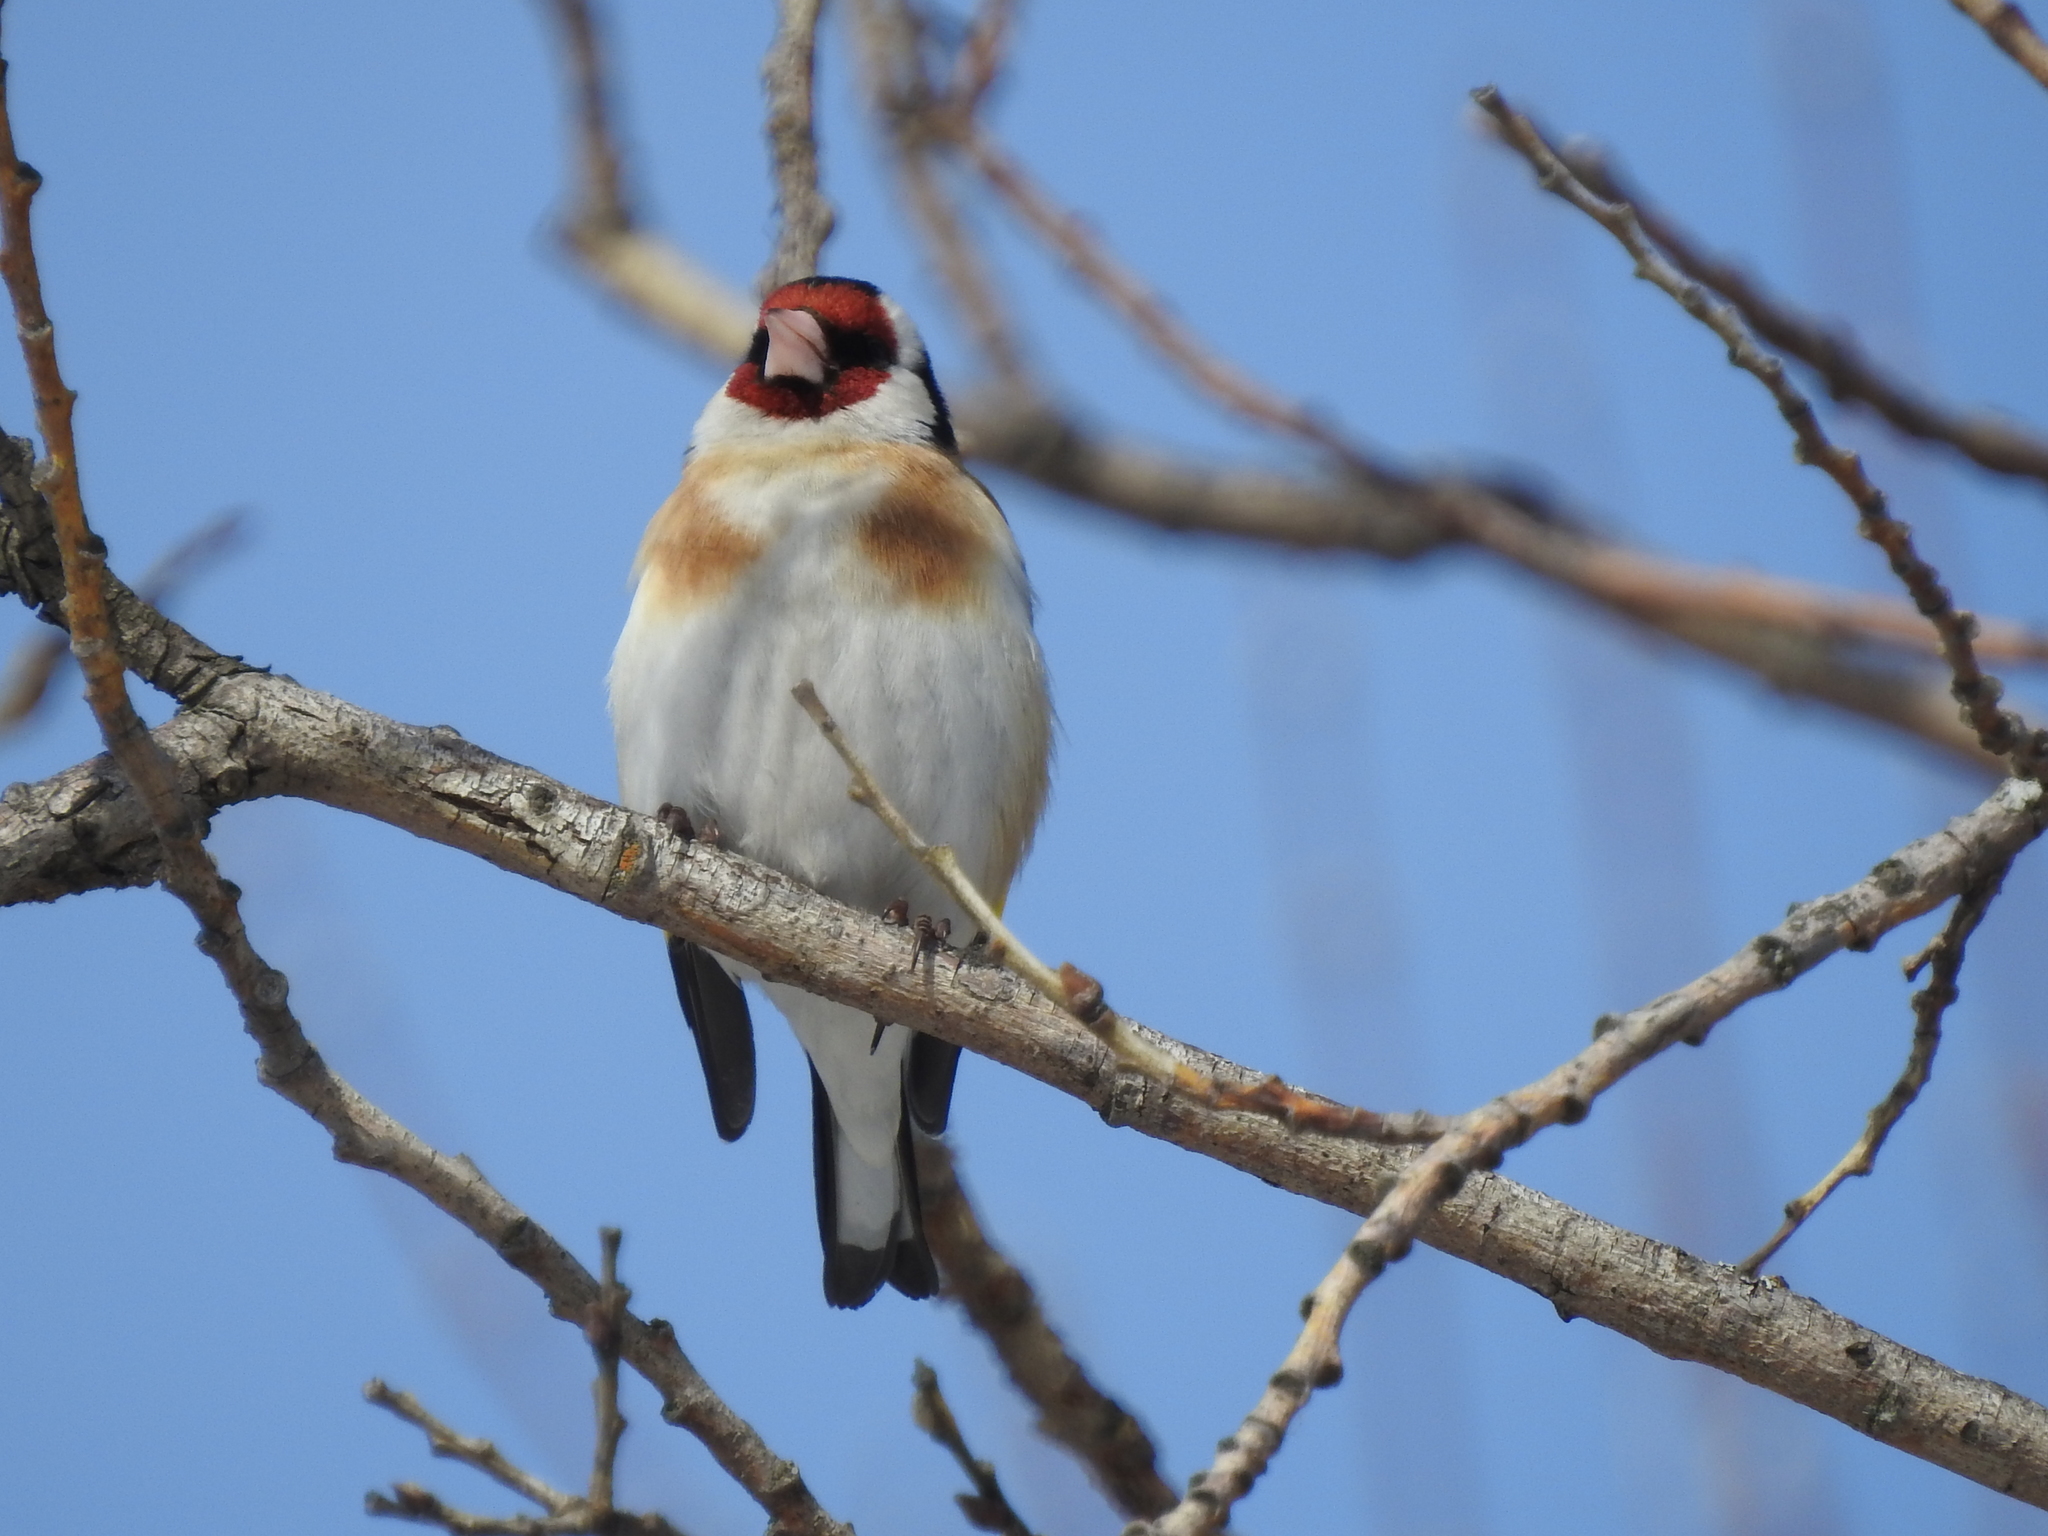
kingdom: Animalia
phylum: Chordata
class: Aves
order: Passeriformes
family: Fringillidae
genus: Carduelis
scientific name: Carduelis carduelis
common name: European goldfinch
